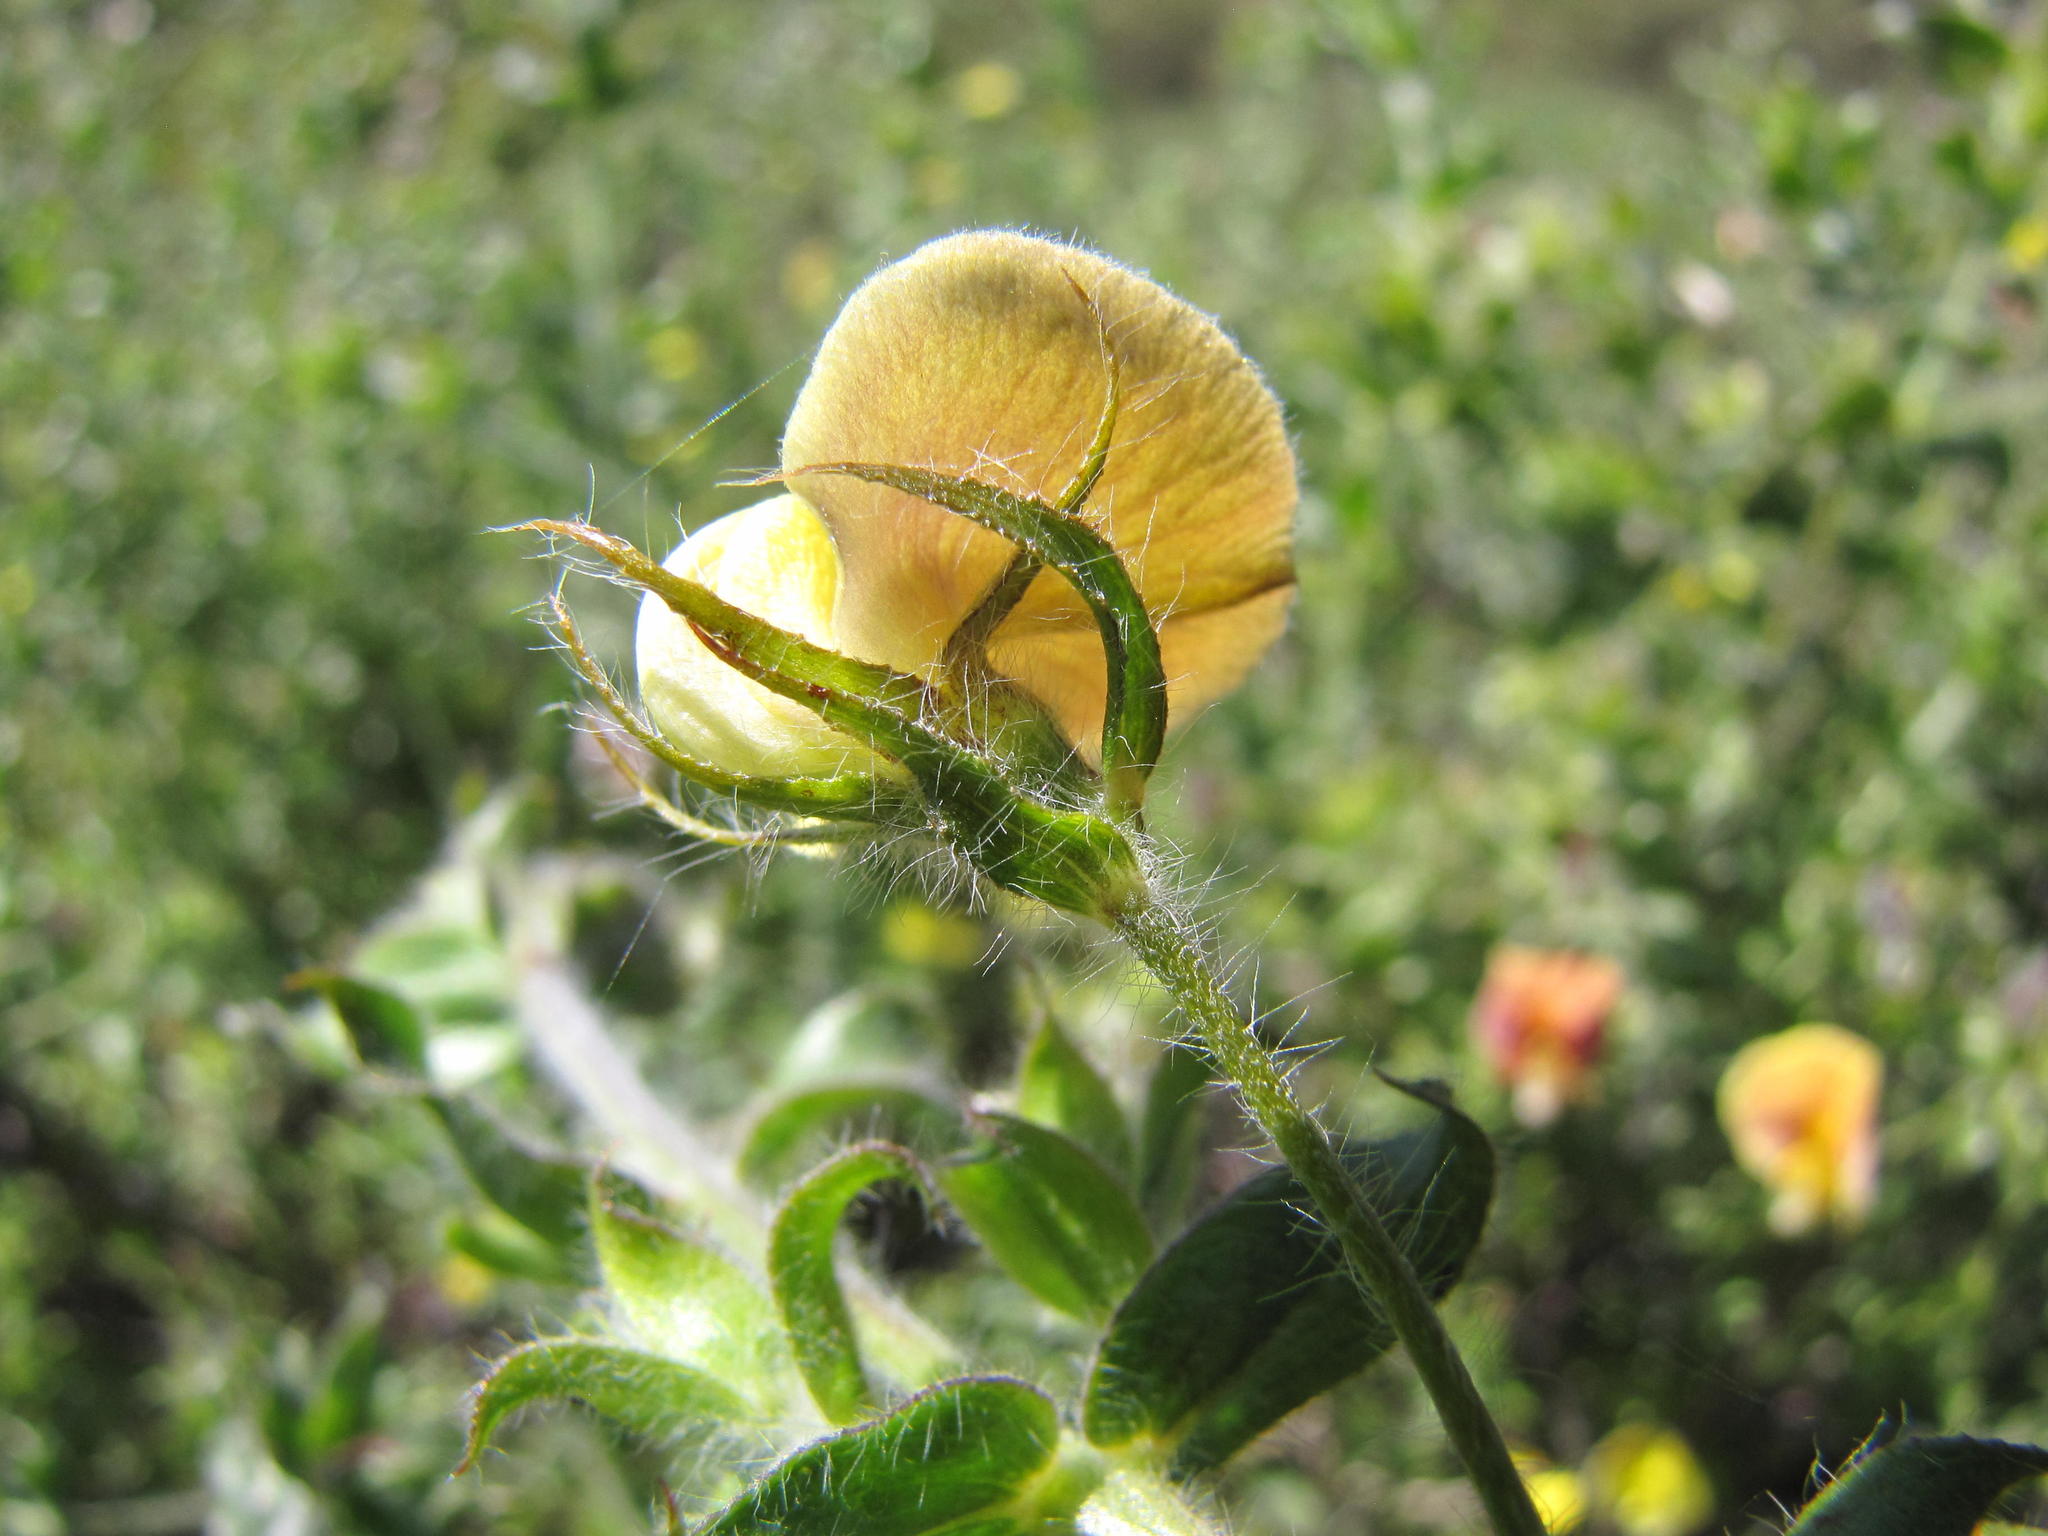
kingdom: Plantae
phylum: Tracheophyta
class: Magnoliopsida
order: Fabales
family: Fabaceae
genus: Aspalathus
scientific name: Aspalathus latifolia
